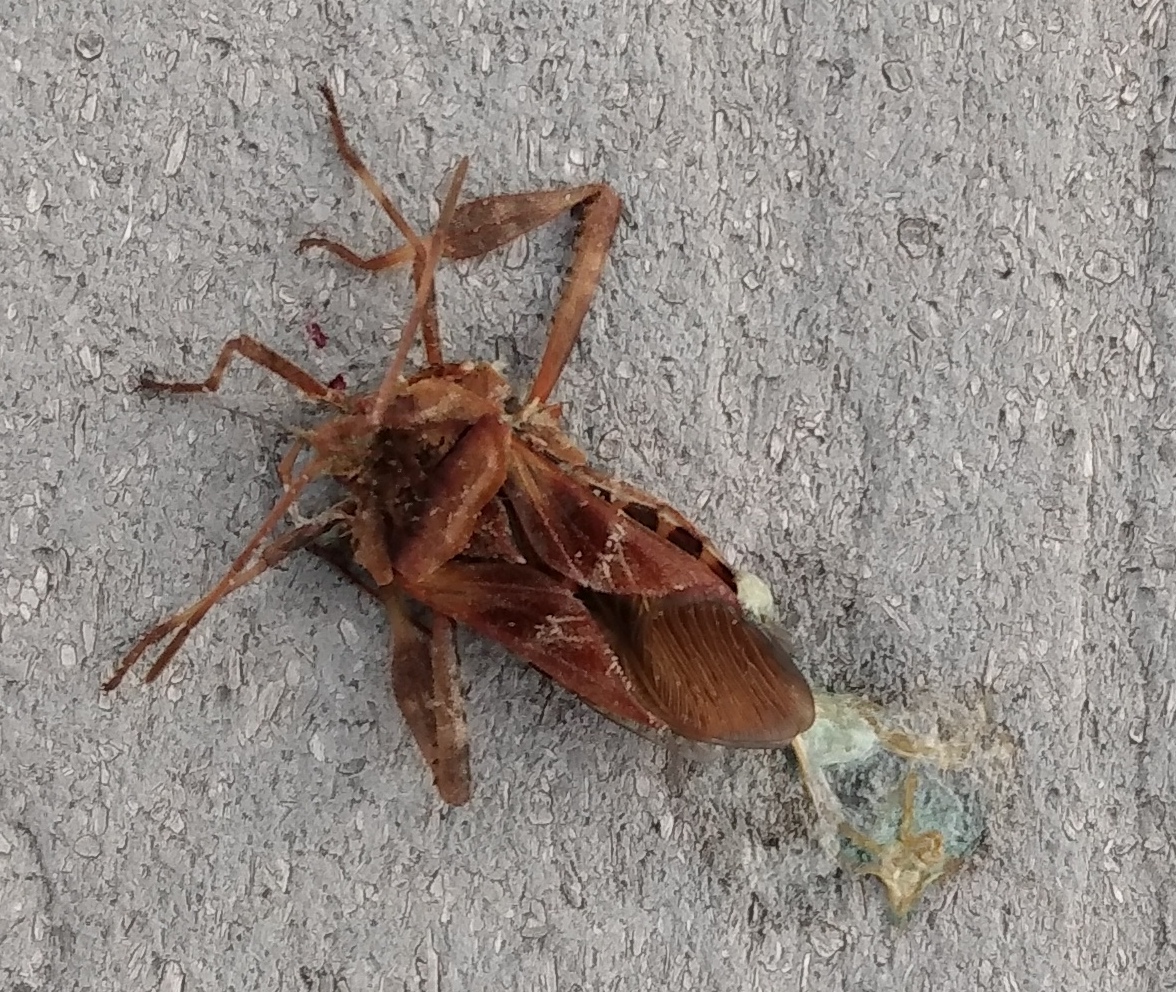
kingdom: Animalia
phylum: Arthropoda
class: Insecta
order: Hemiptera
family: Coreidae
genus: Leptoglossus
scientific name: Leptoglossus occidentalis
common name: Western conifer-seed bug
